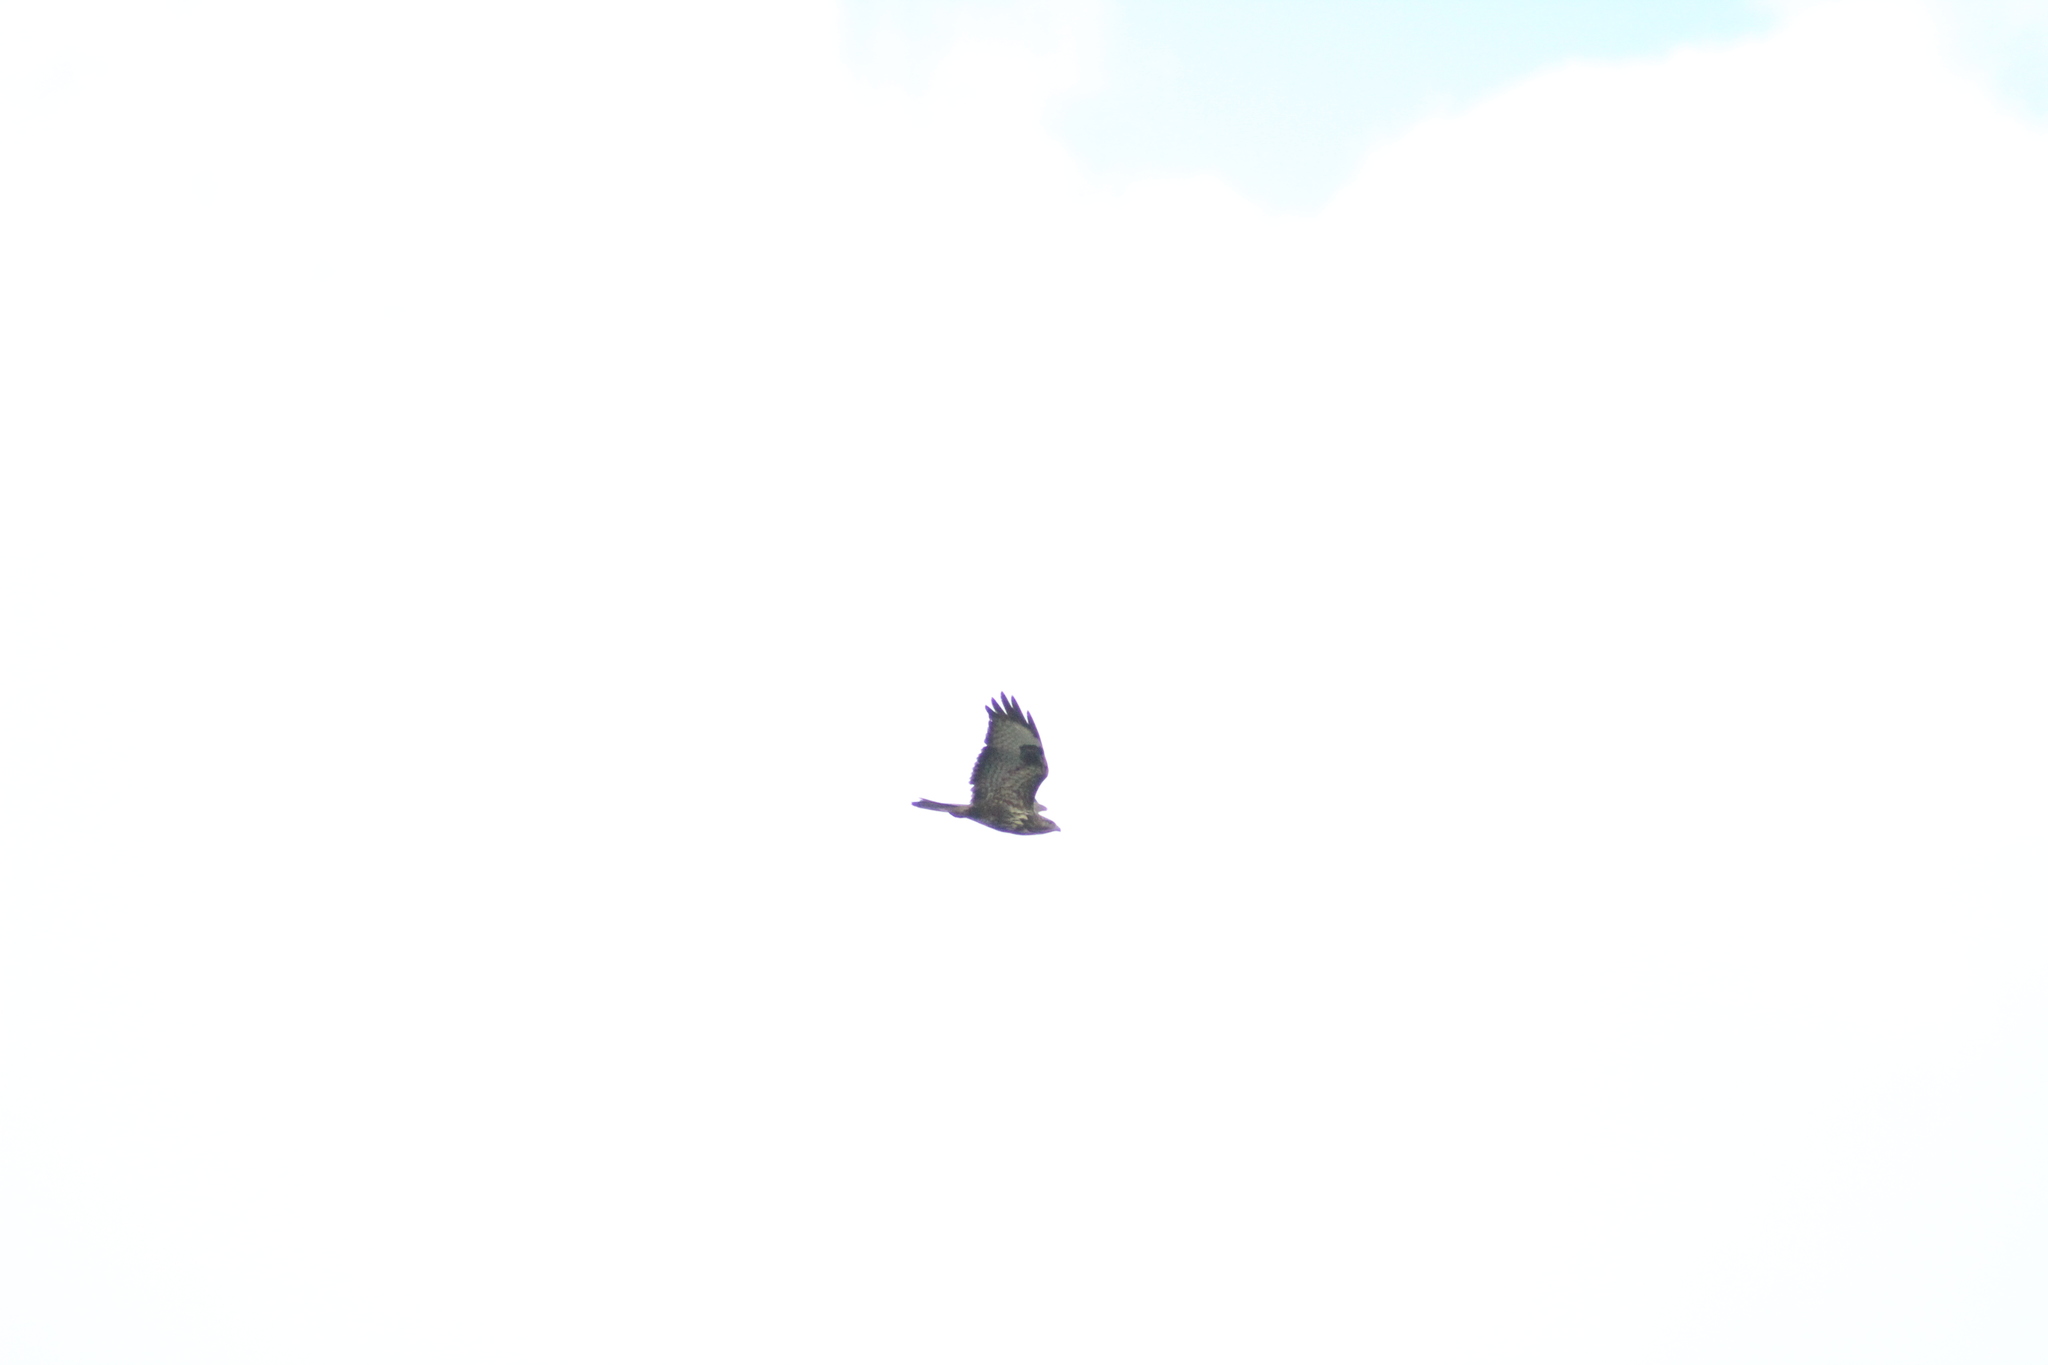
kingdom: Animalia
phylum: Chordata
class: Aves
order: Accipitriformes
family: Accipitridae
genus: Buteo
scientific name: Buteo buteo
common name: Common buzzard
